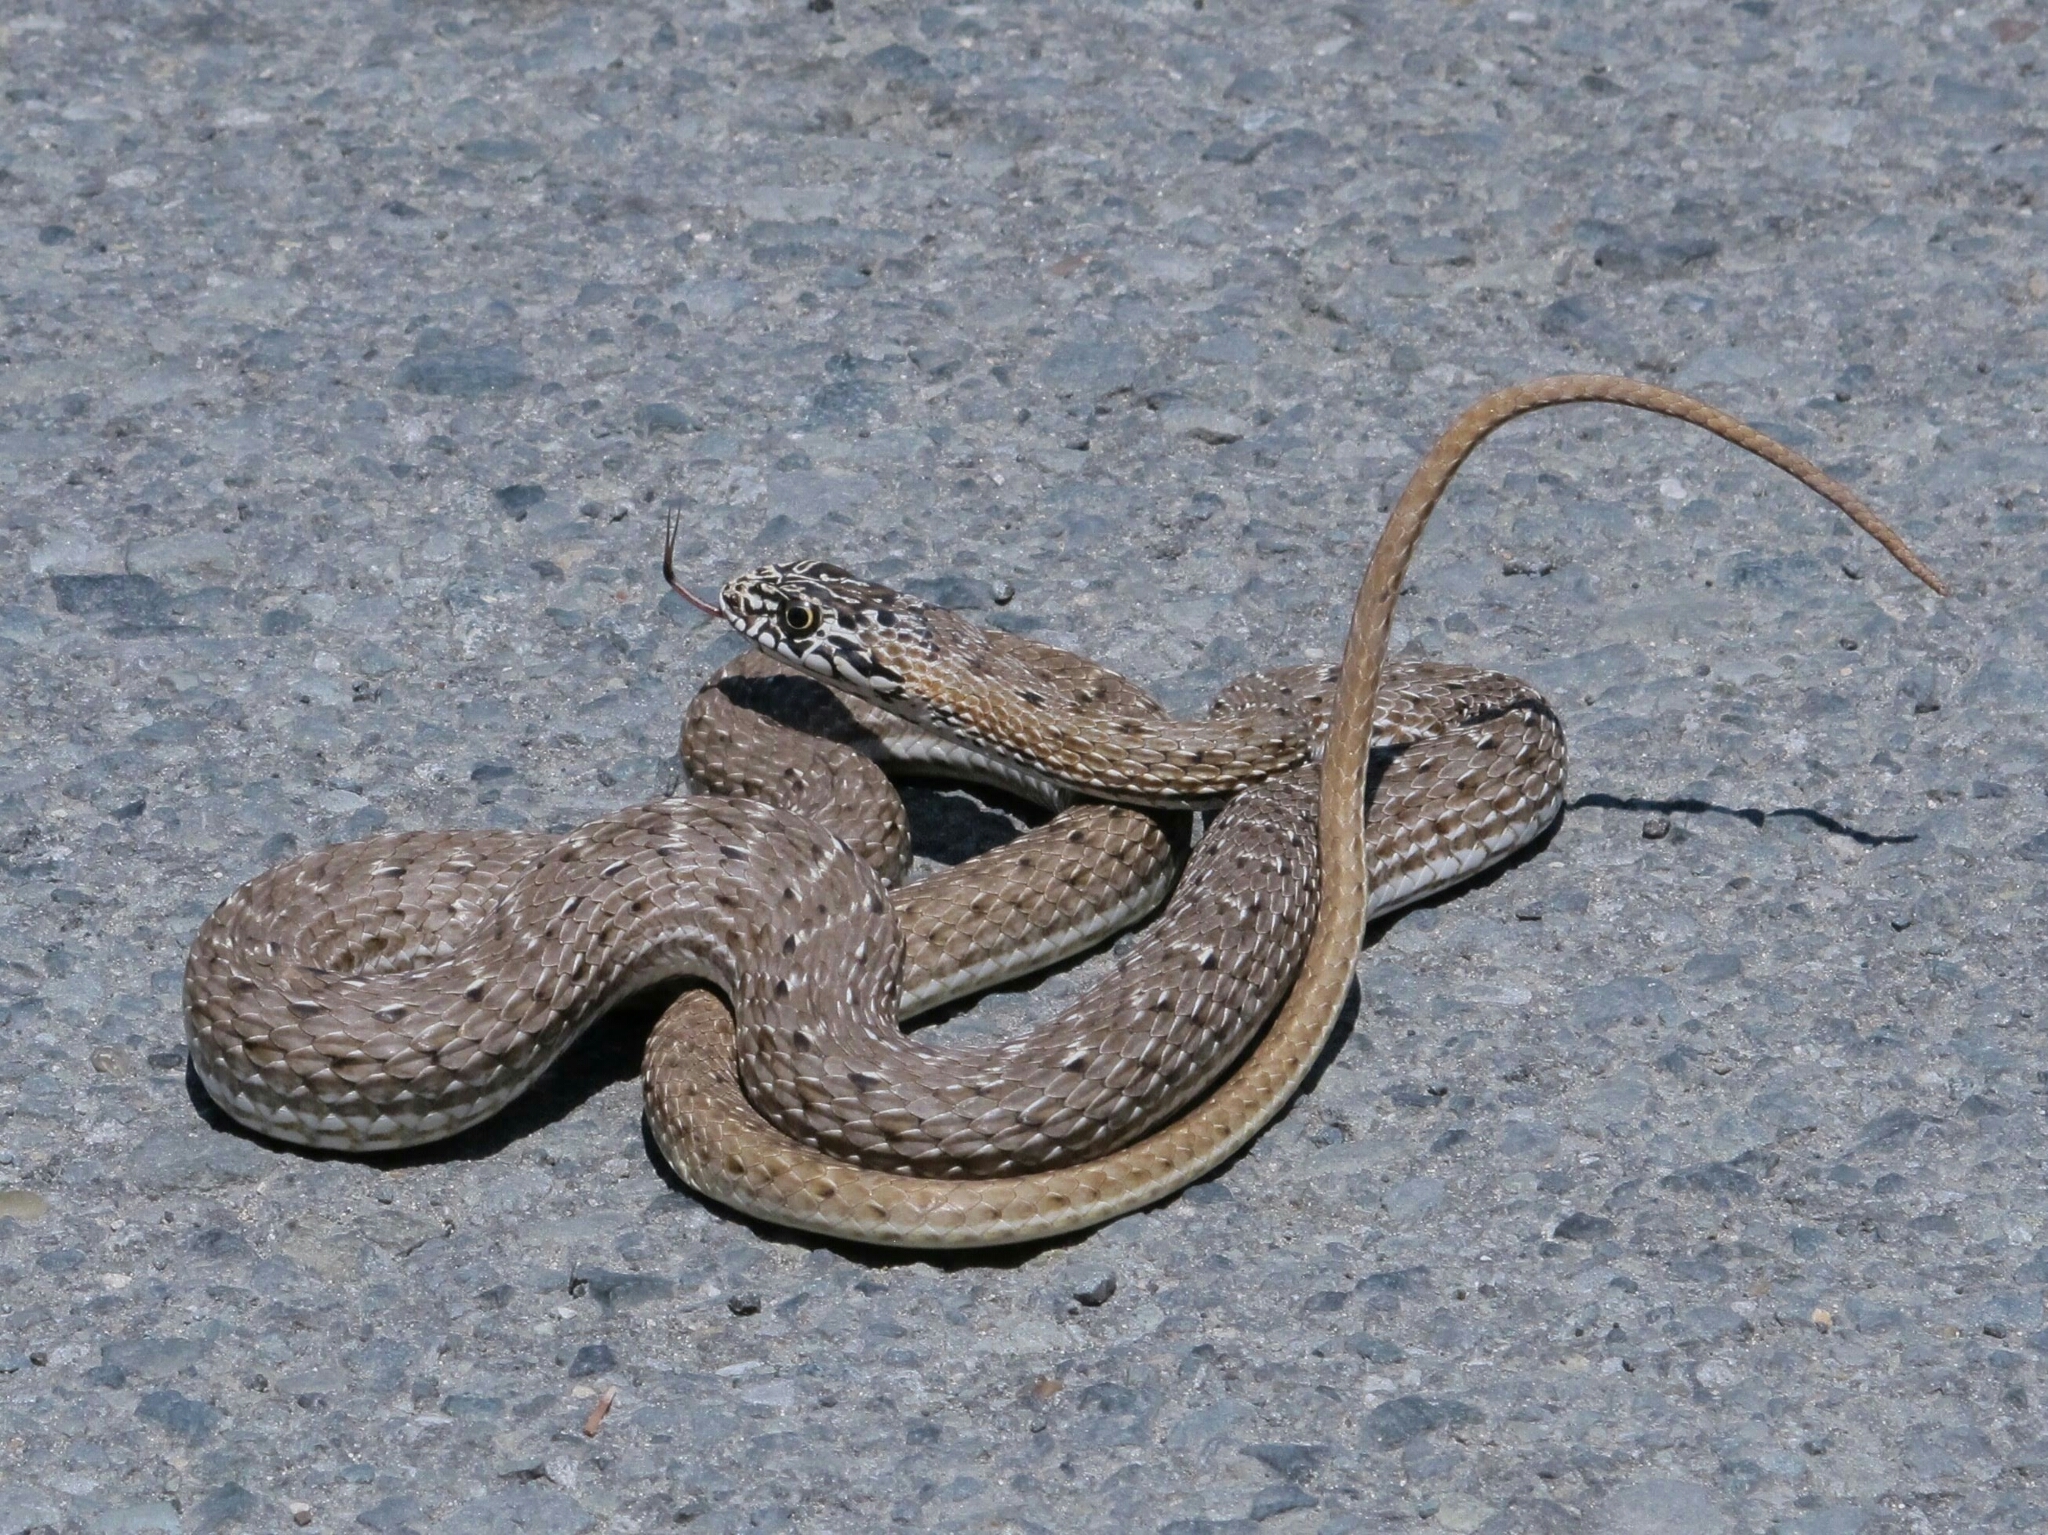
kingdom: Animalia
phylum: Chordata
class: Squamata
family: Psammophiidae
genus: Malpolon
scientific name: Malpolon insignitus
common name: Eastern montpellier snake
